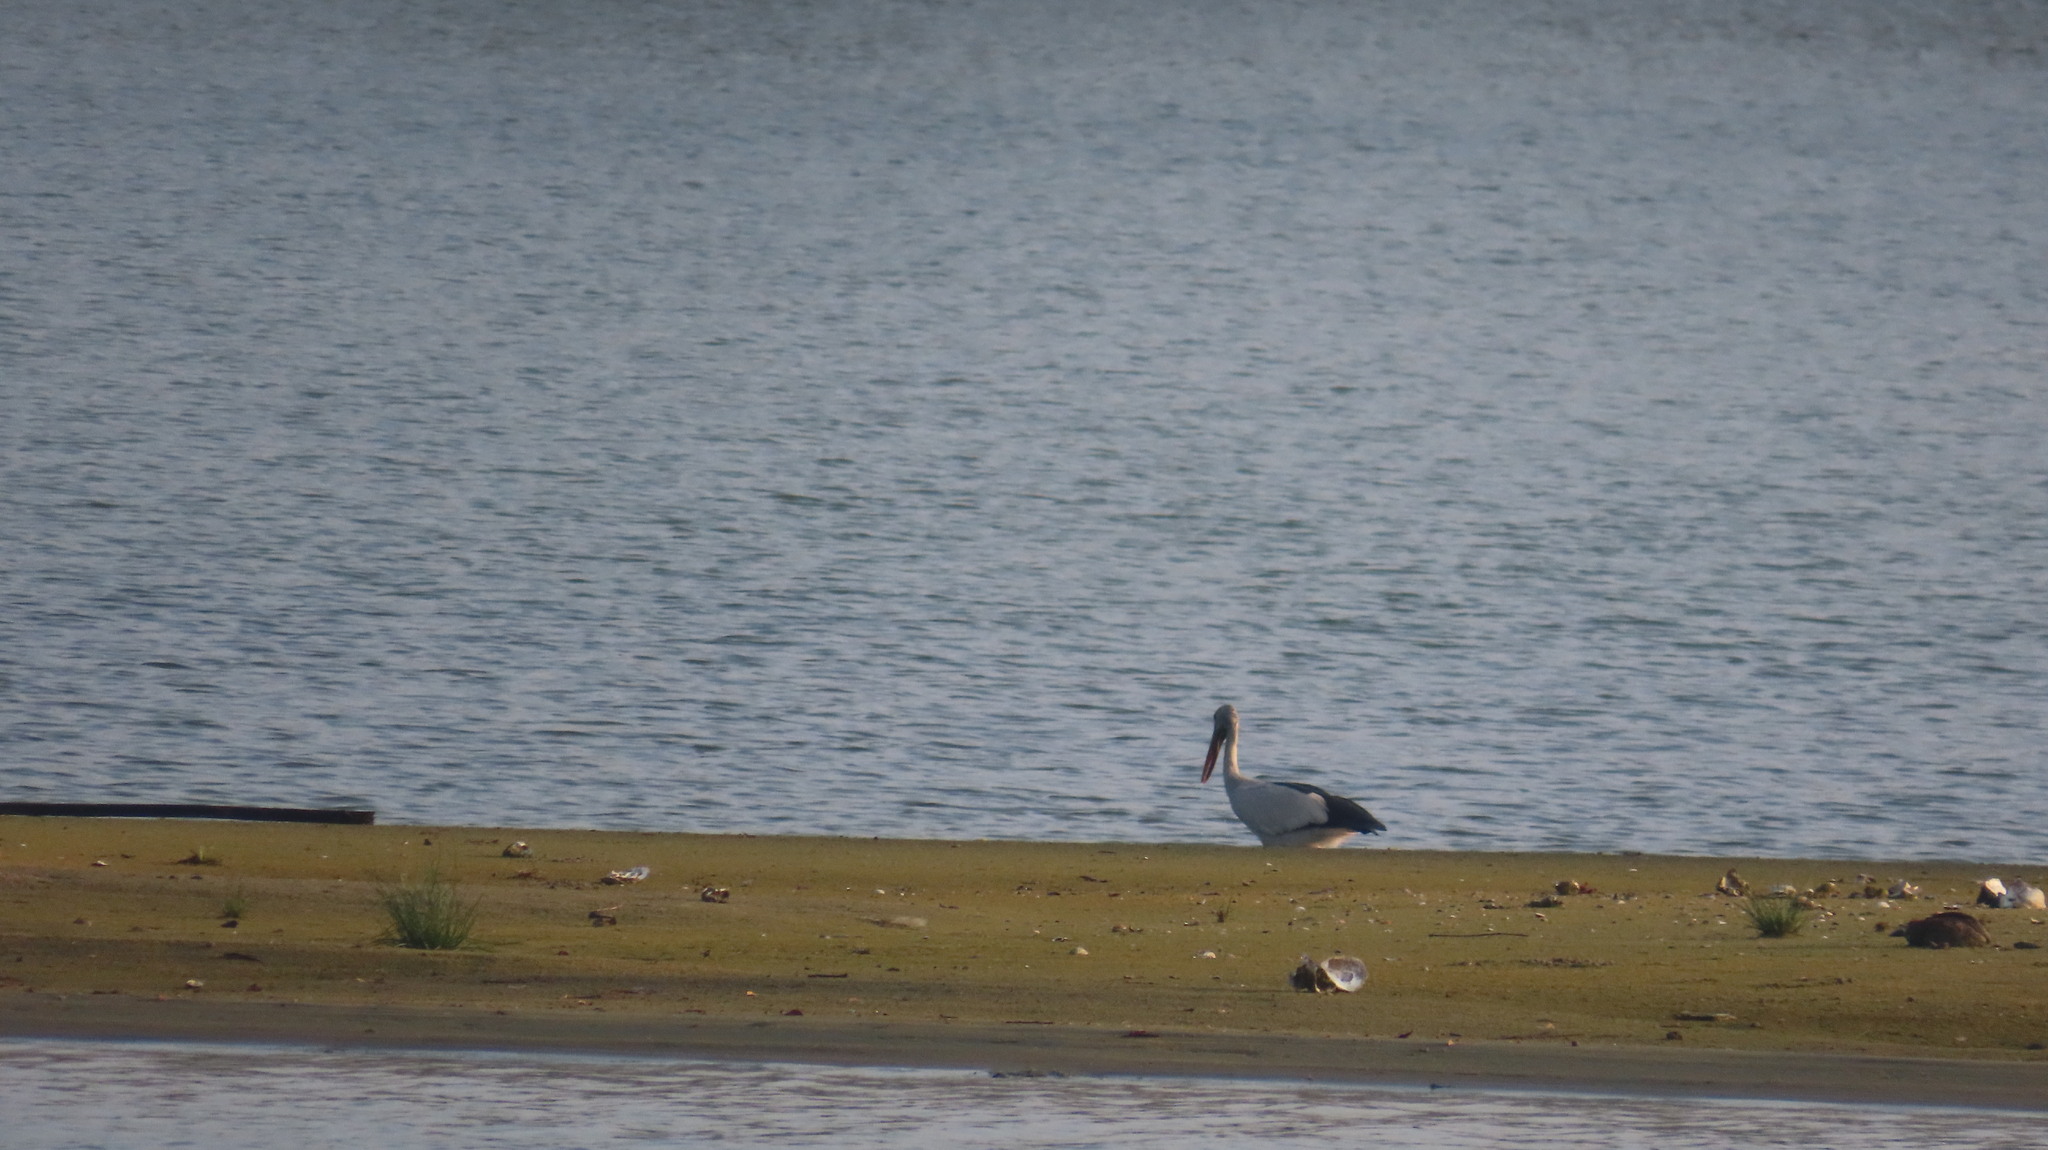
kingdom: Animalia
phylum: Chordata
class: Aves
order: Ciconiiformes
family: Ciconiidae
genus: Anastomus
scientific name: Anastomus oscitans
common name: Asian openbill
